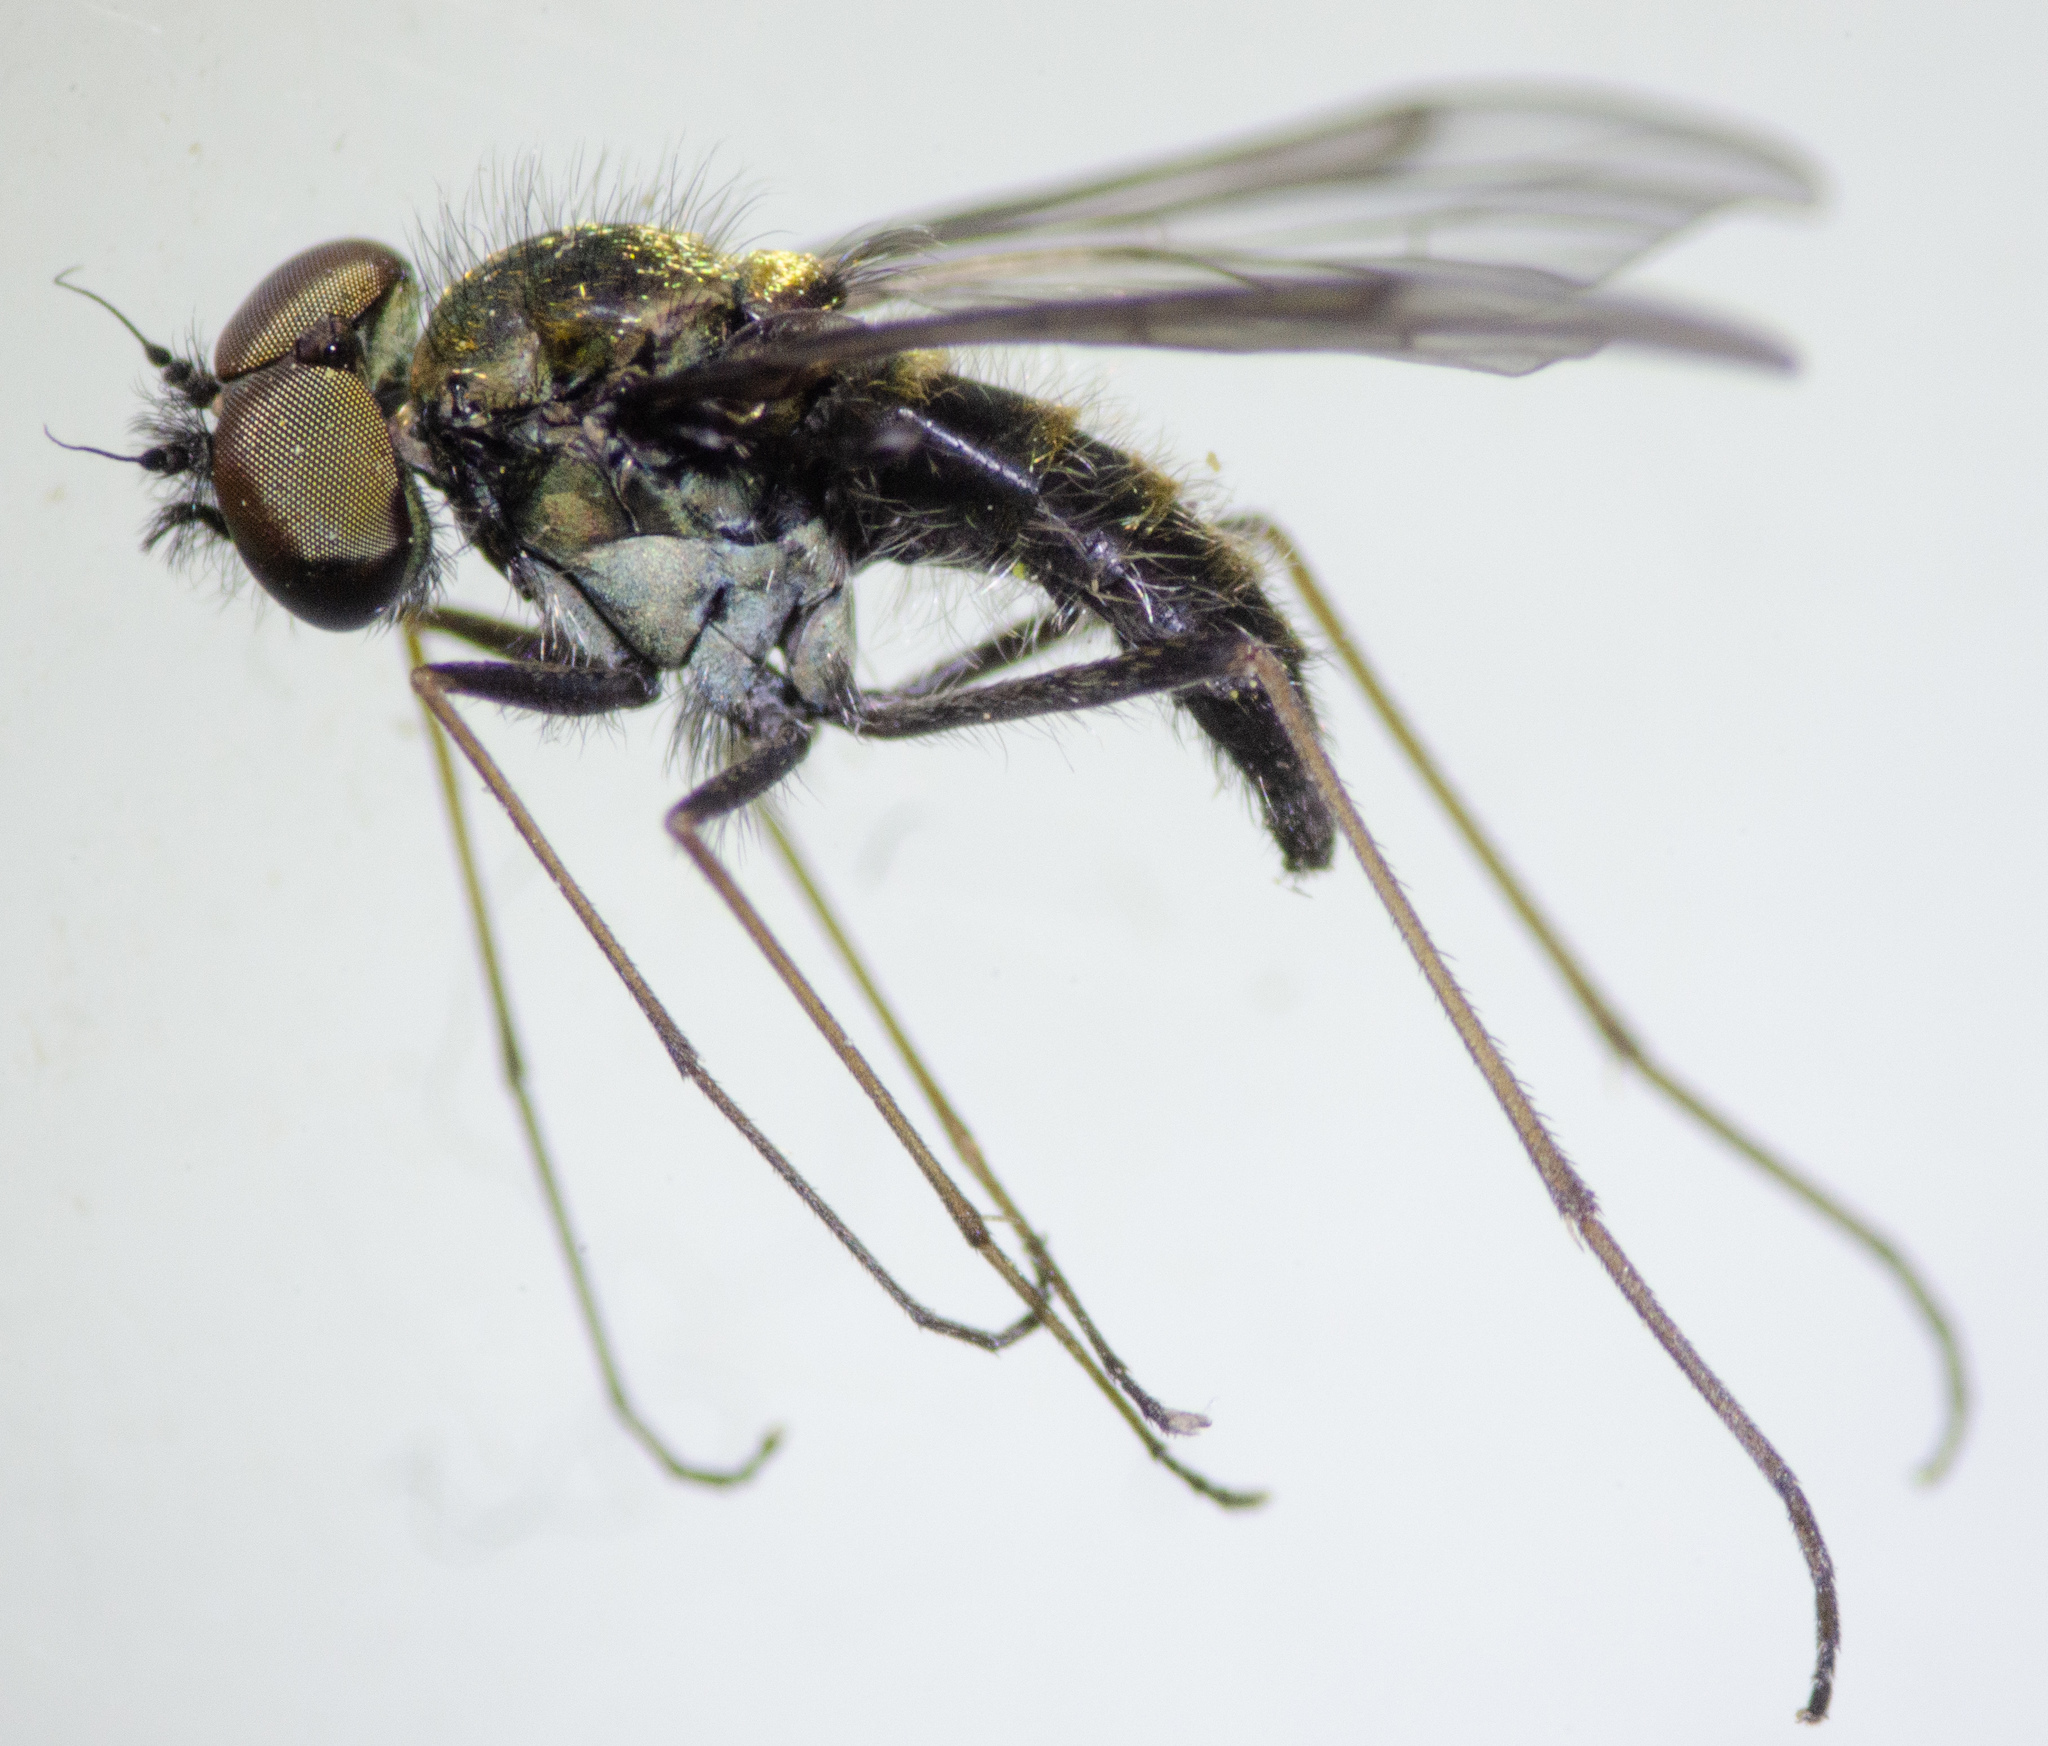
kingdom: Animalia
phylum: Arthropoda
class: Insecta
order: Diptera
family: Rhagionidae
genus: Chrysopilus
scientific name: Chrysopilus tomentosus
